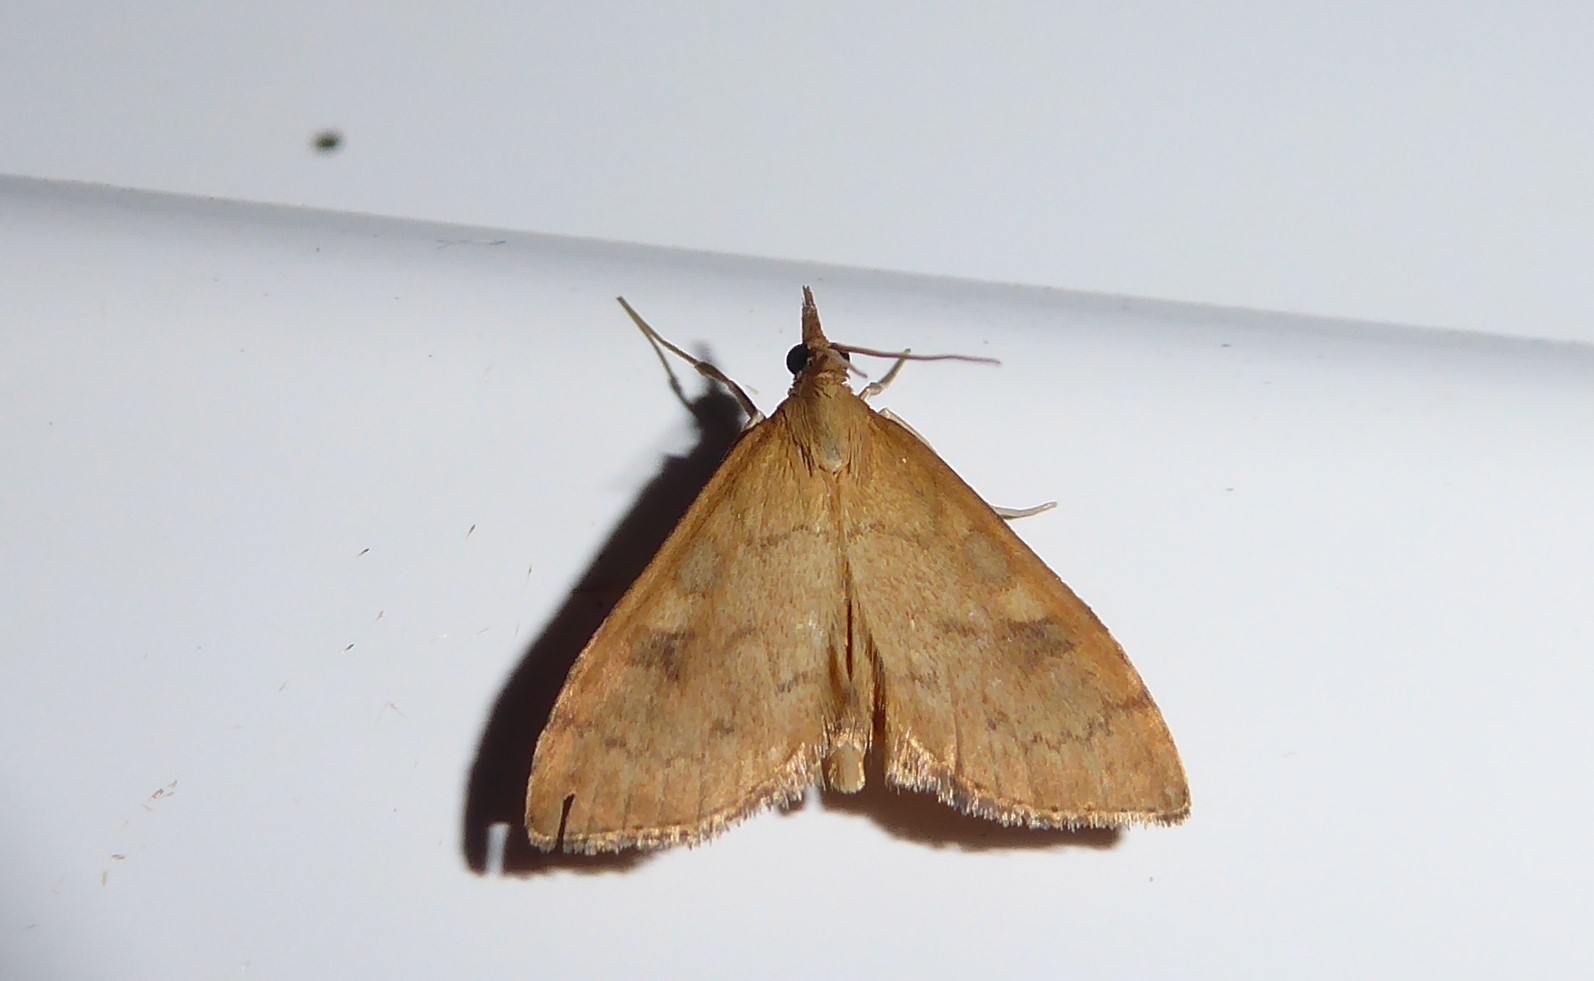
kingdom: Animalia
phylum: Arthropoda
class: Insecta
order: Lepidoptera
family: Crambidae
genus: Udea
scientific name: Udea Mnesictena flavidalis
